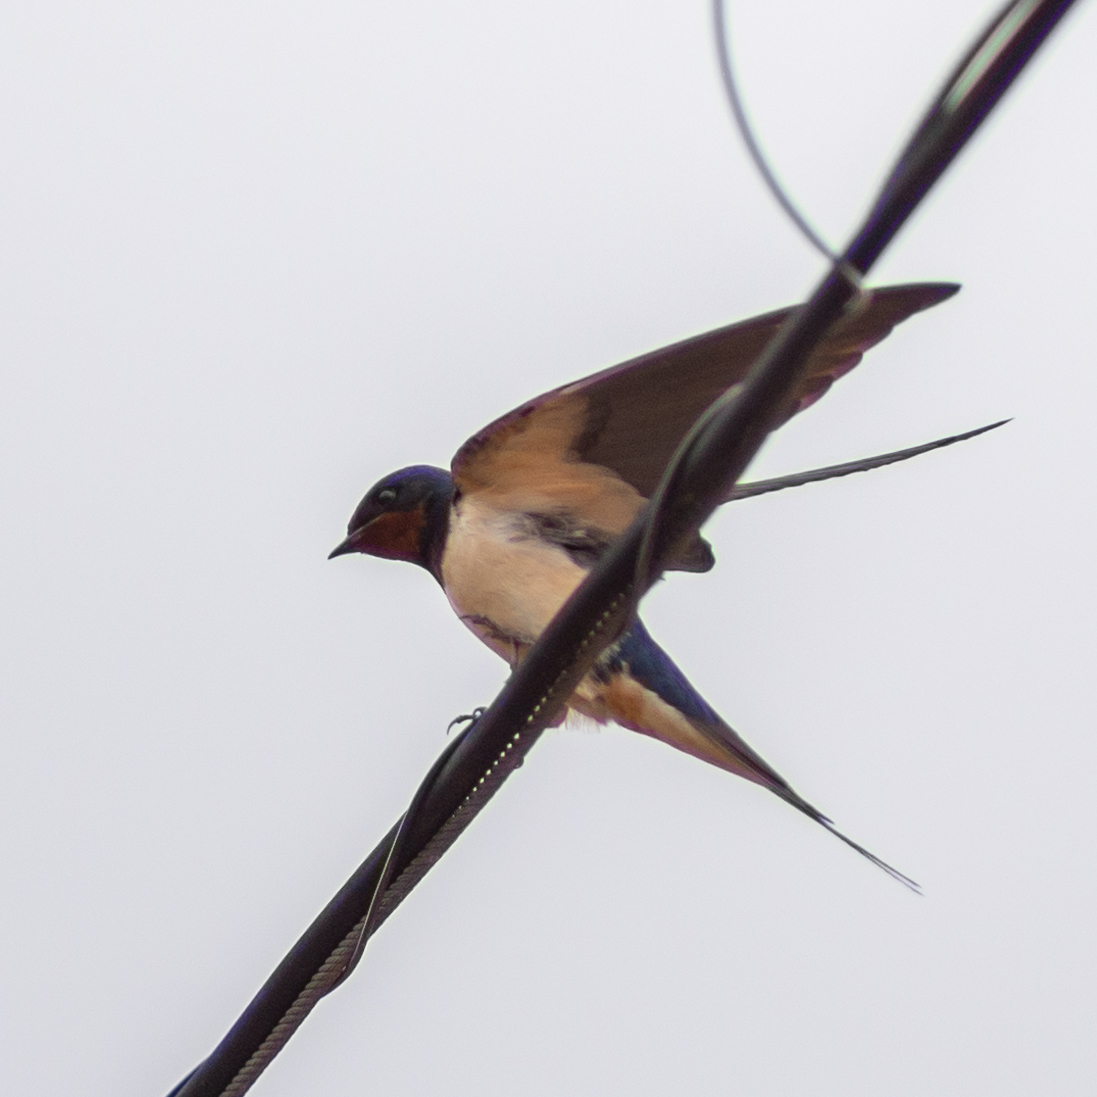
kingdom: Animalia
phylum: Chordata
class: Aves
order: Passeriformes
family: Hirundinidae
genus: Hirundo
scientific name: Hirundo rustica
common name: Barn swallow
